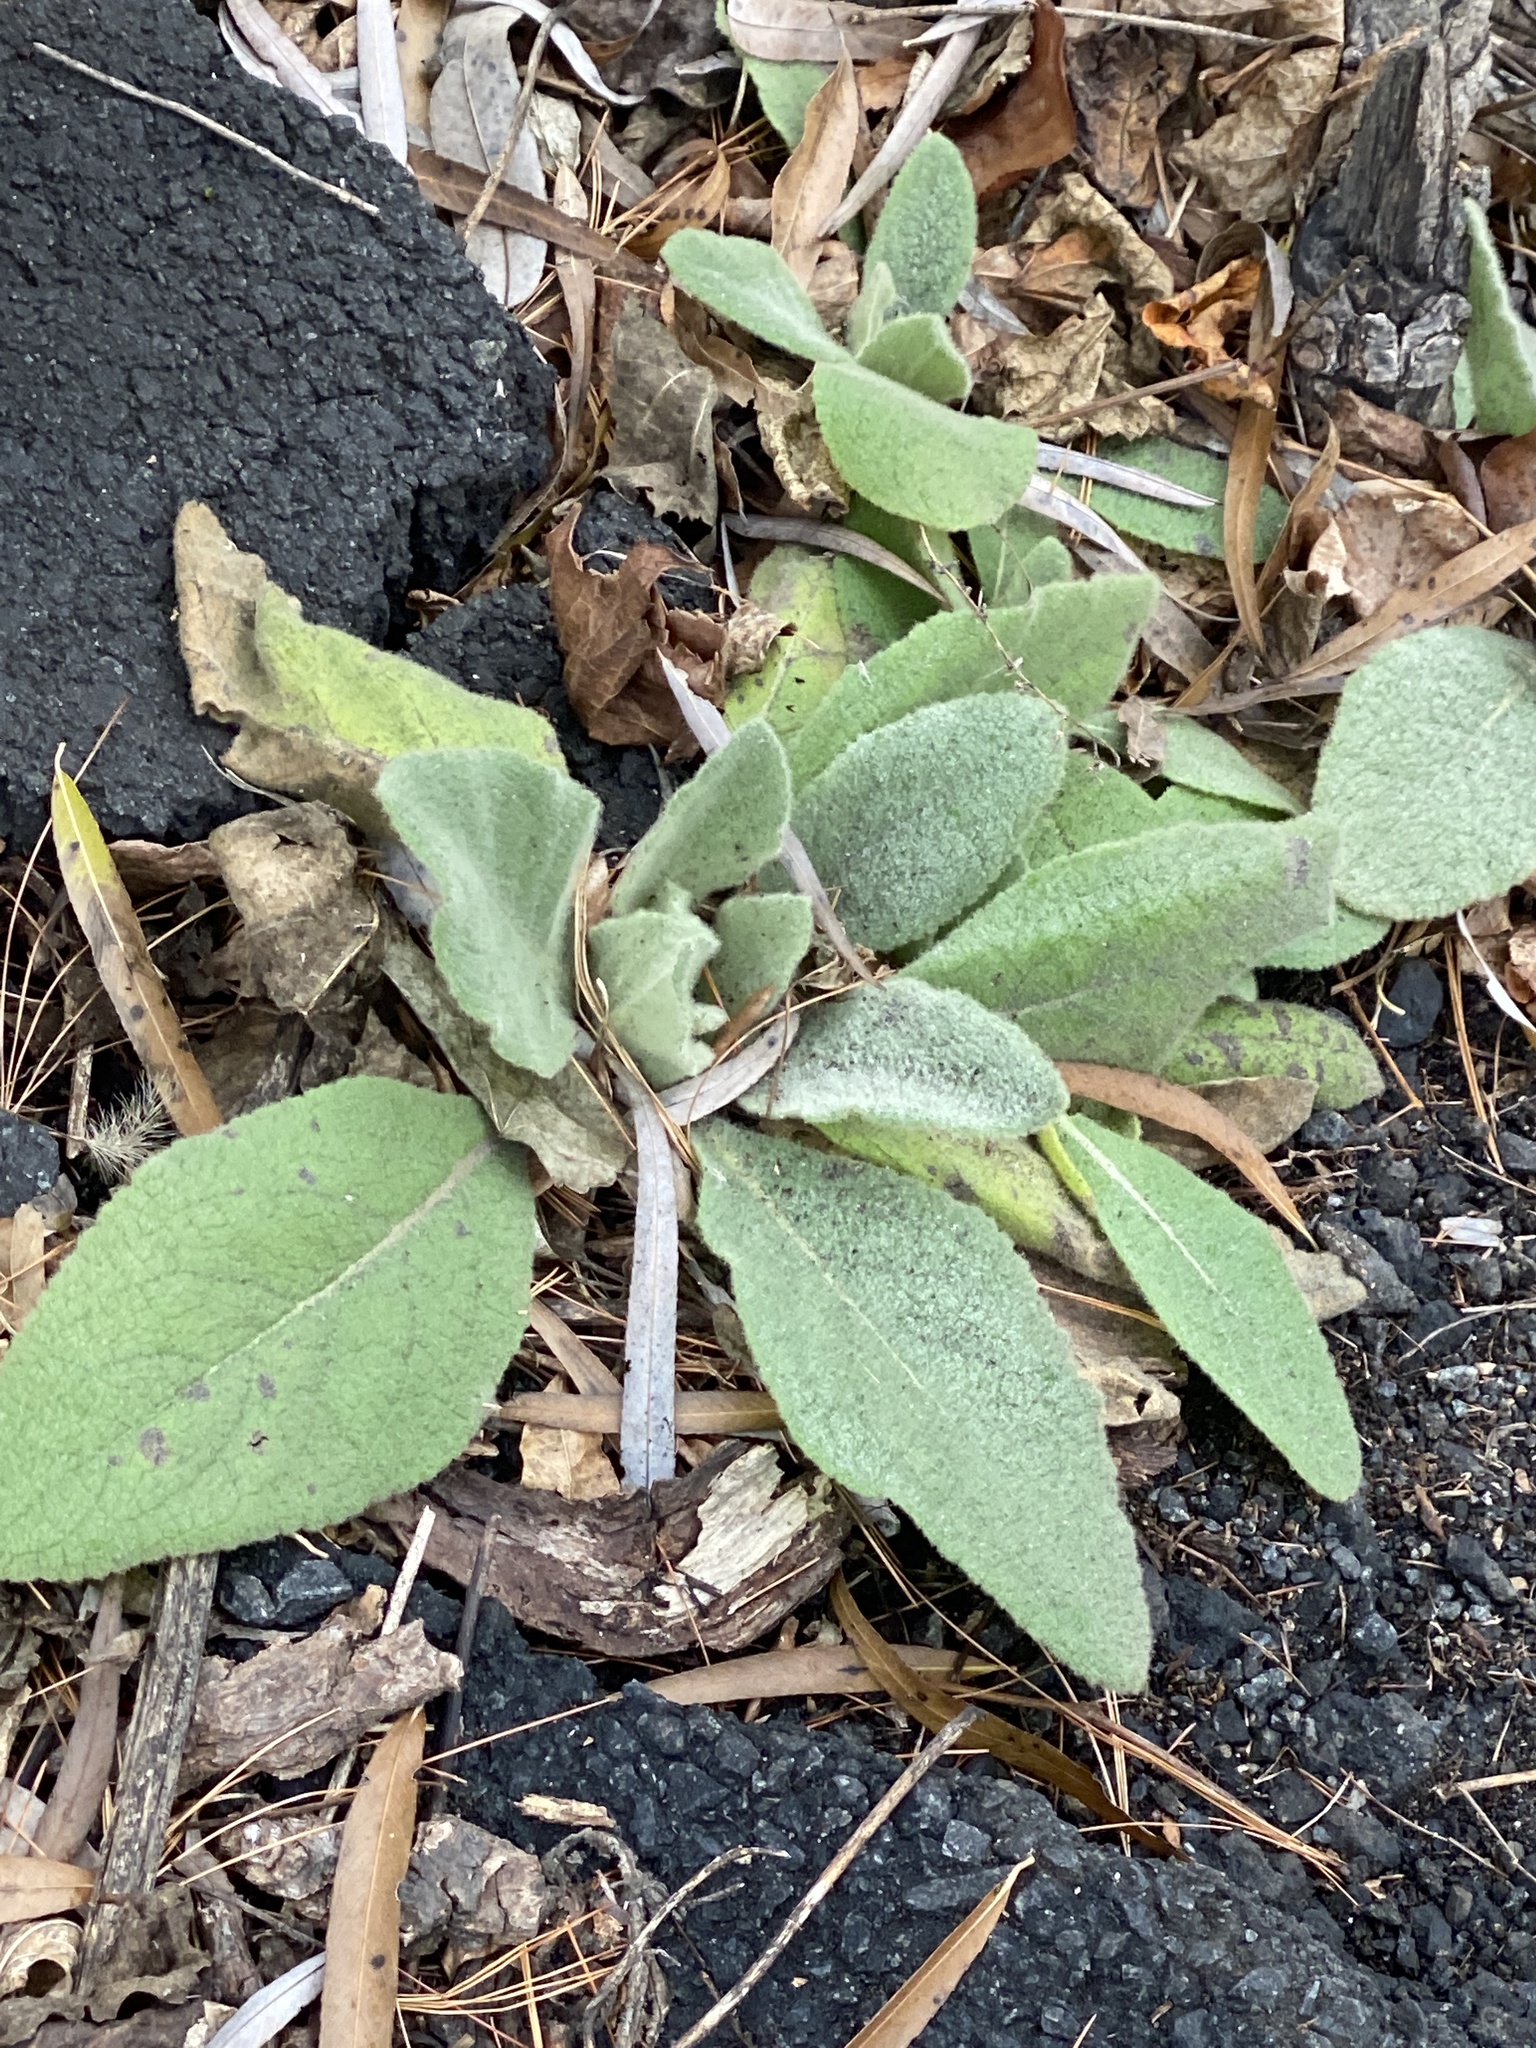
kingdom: Plantae
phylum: Tracheophyta
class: Magnoliopsida
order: Lamiales
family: Scrophulariaceae
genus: Verbascum
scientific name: Verbascum thapsus
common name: Common mullein
